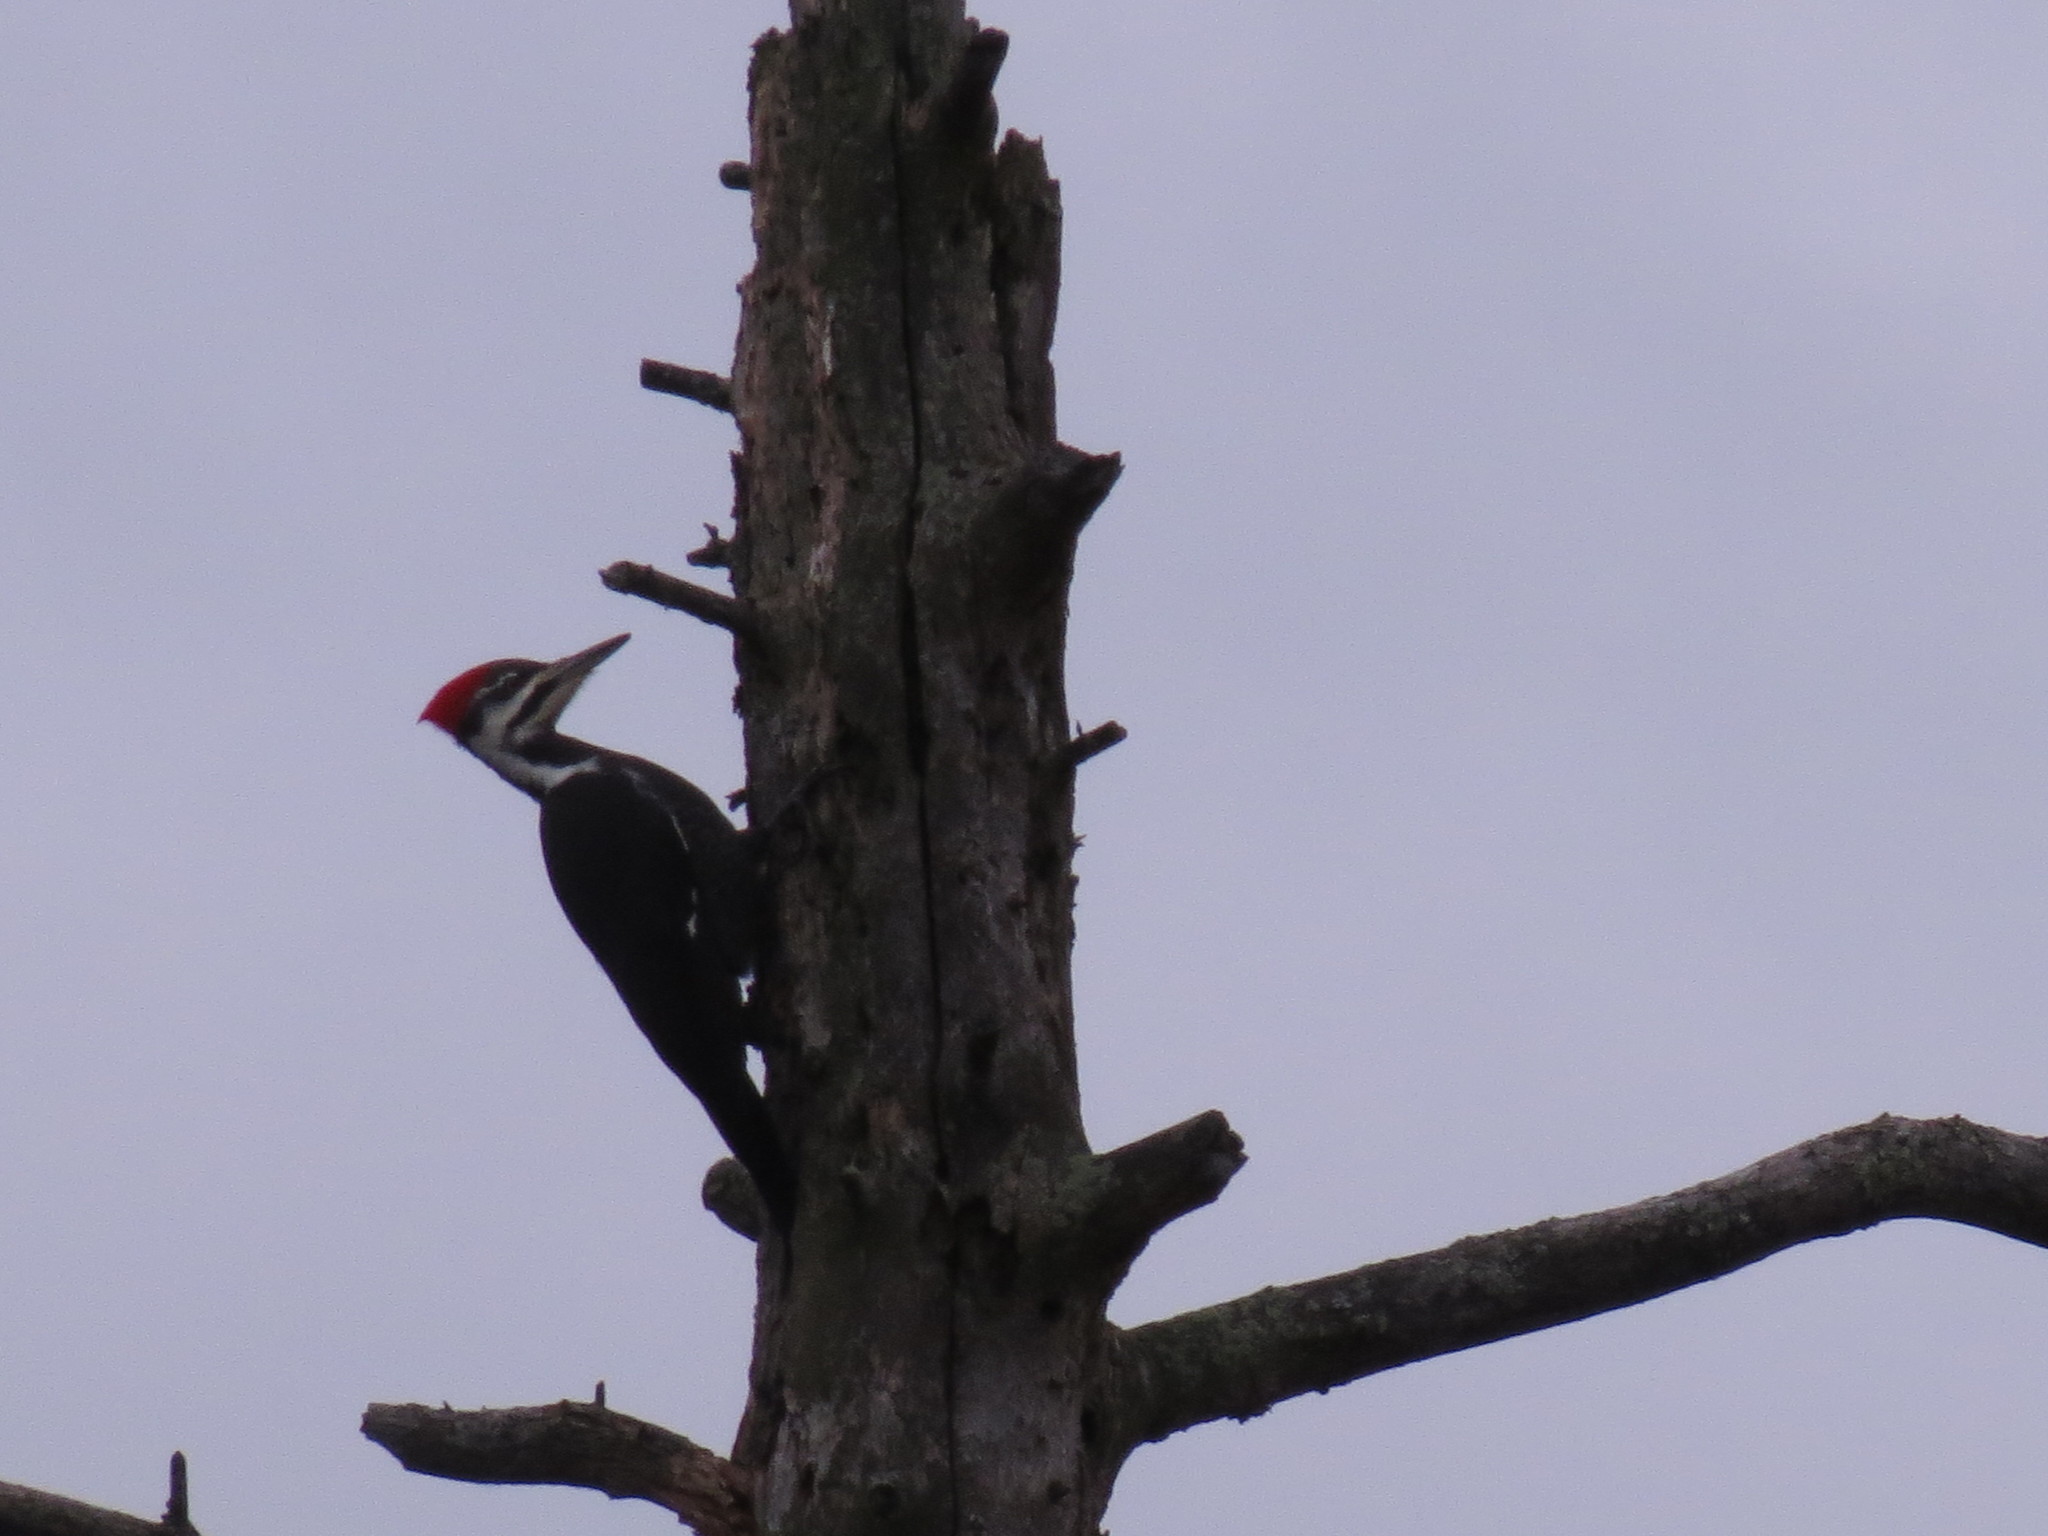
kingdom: Animalia
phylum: Chordata
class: Aves
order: Piciformes
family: Picidae
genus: Dryocopus
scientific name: Dryocopus pileatus
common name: Pileated woodpecker
